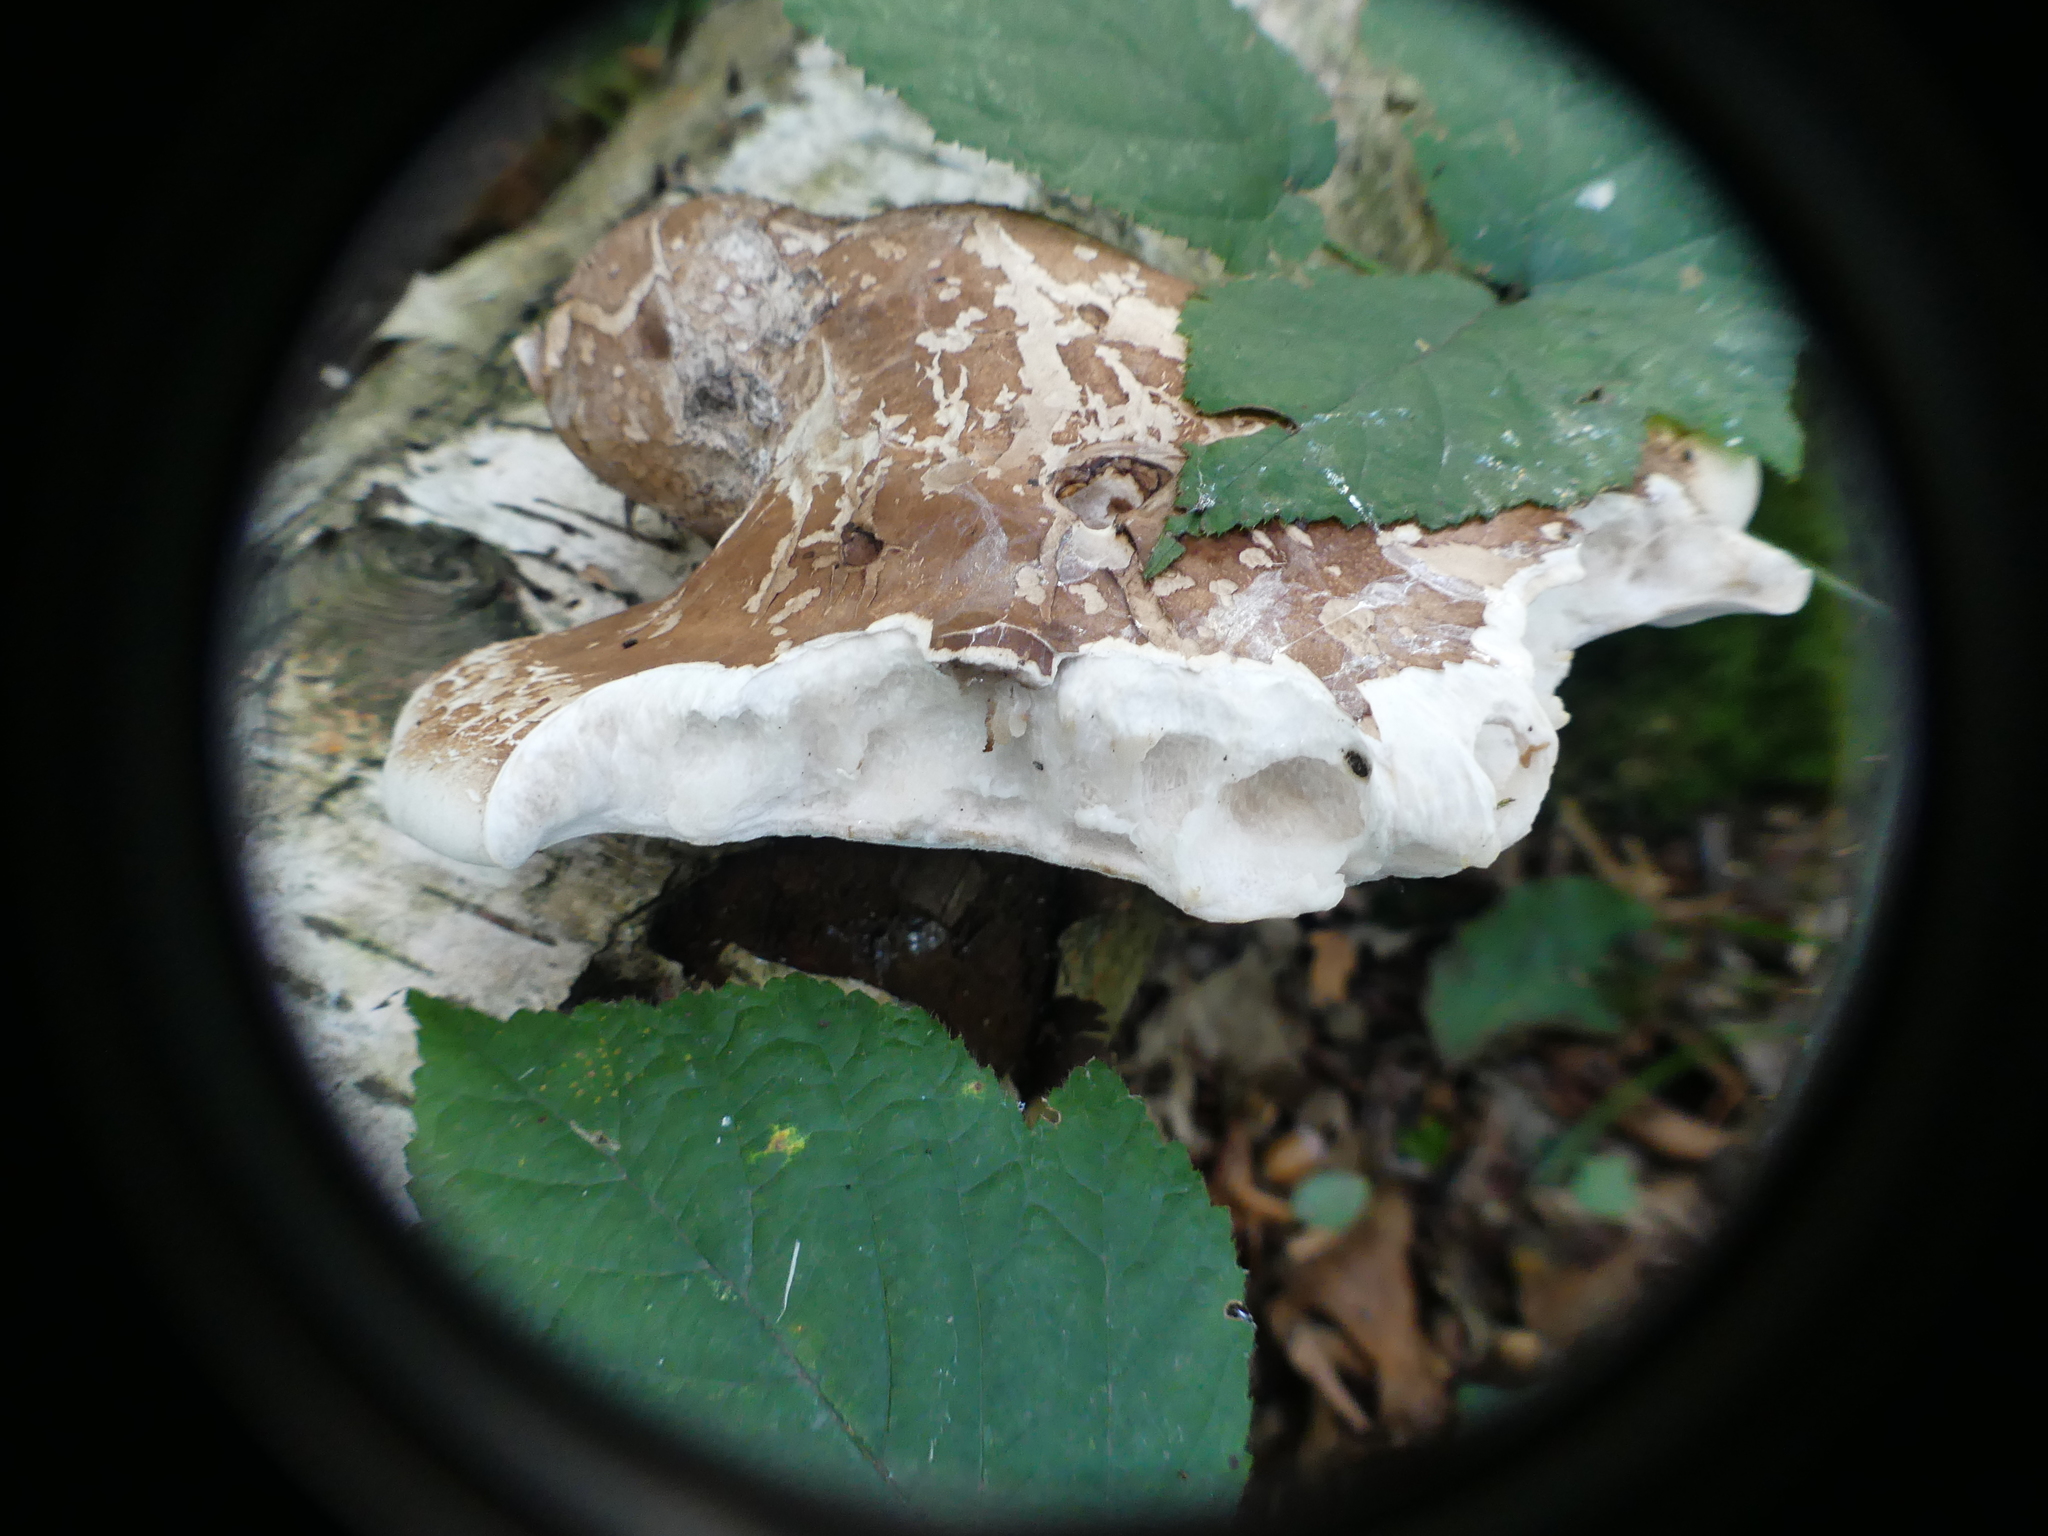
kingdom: Fungi
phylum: Basidiomycota
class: Agaricomycetes
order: Polyporales
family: Fomitopsidaceae
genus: Fomitopsis
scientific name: Fomitopsis betulina
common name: Birch polypore
